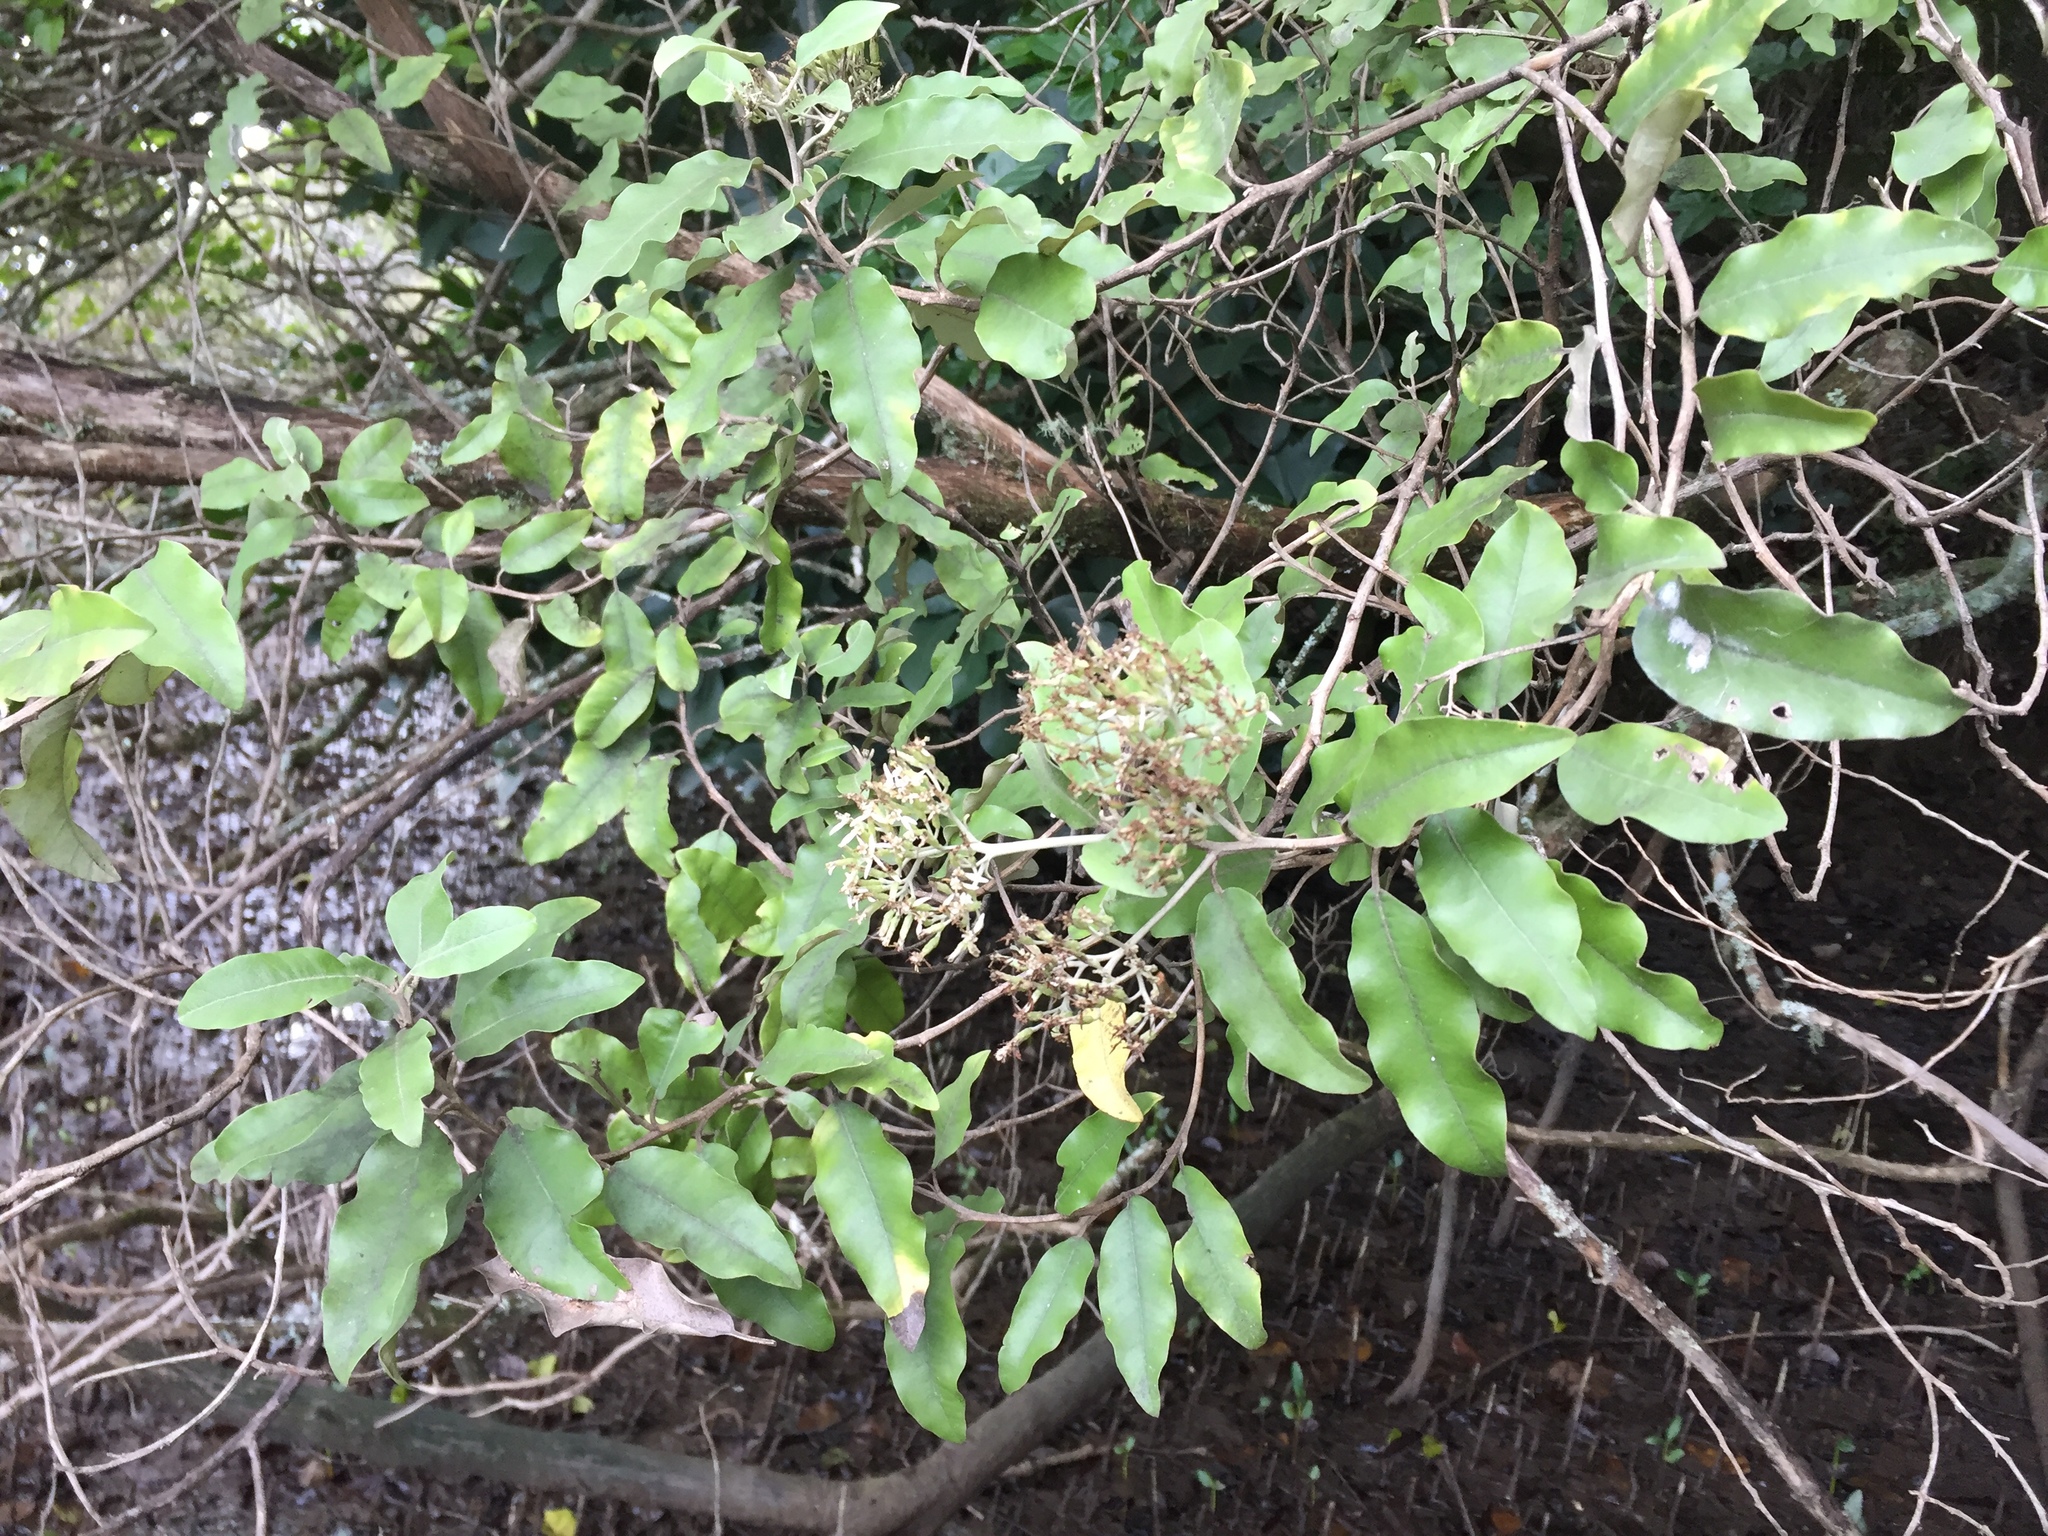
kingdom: Plantae
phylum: Tracheophyta
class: Magnoliopsida
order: Asterales
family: Asteraceae
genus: Olearia
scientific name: Olearia albida
